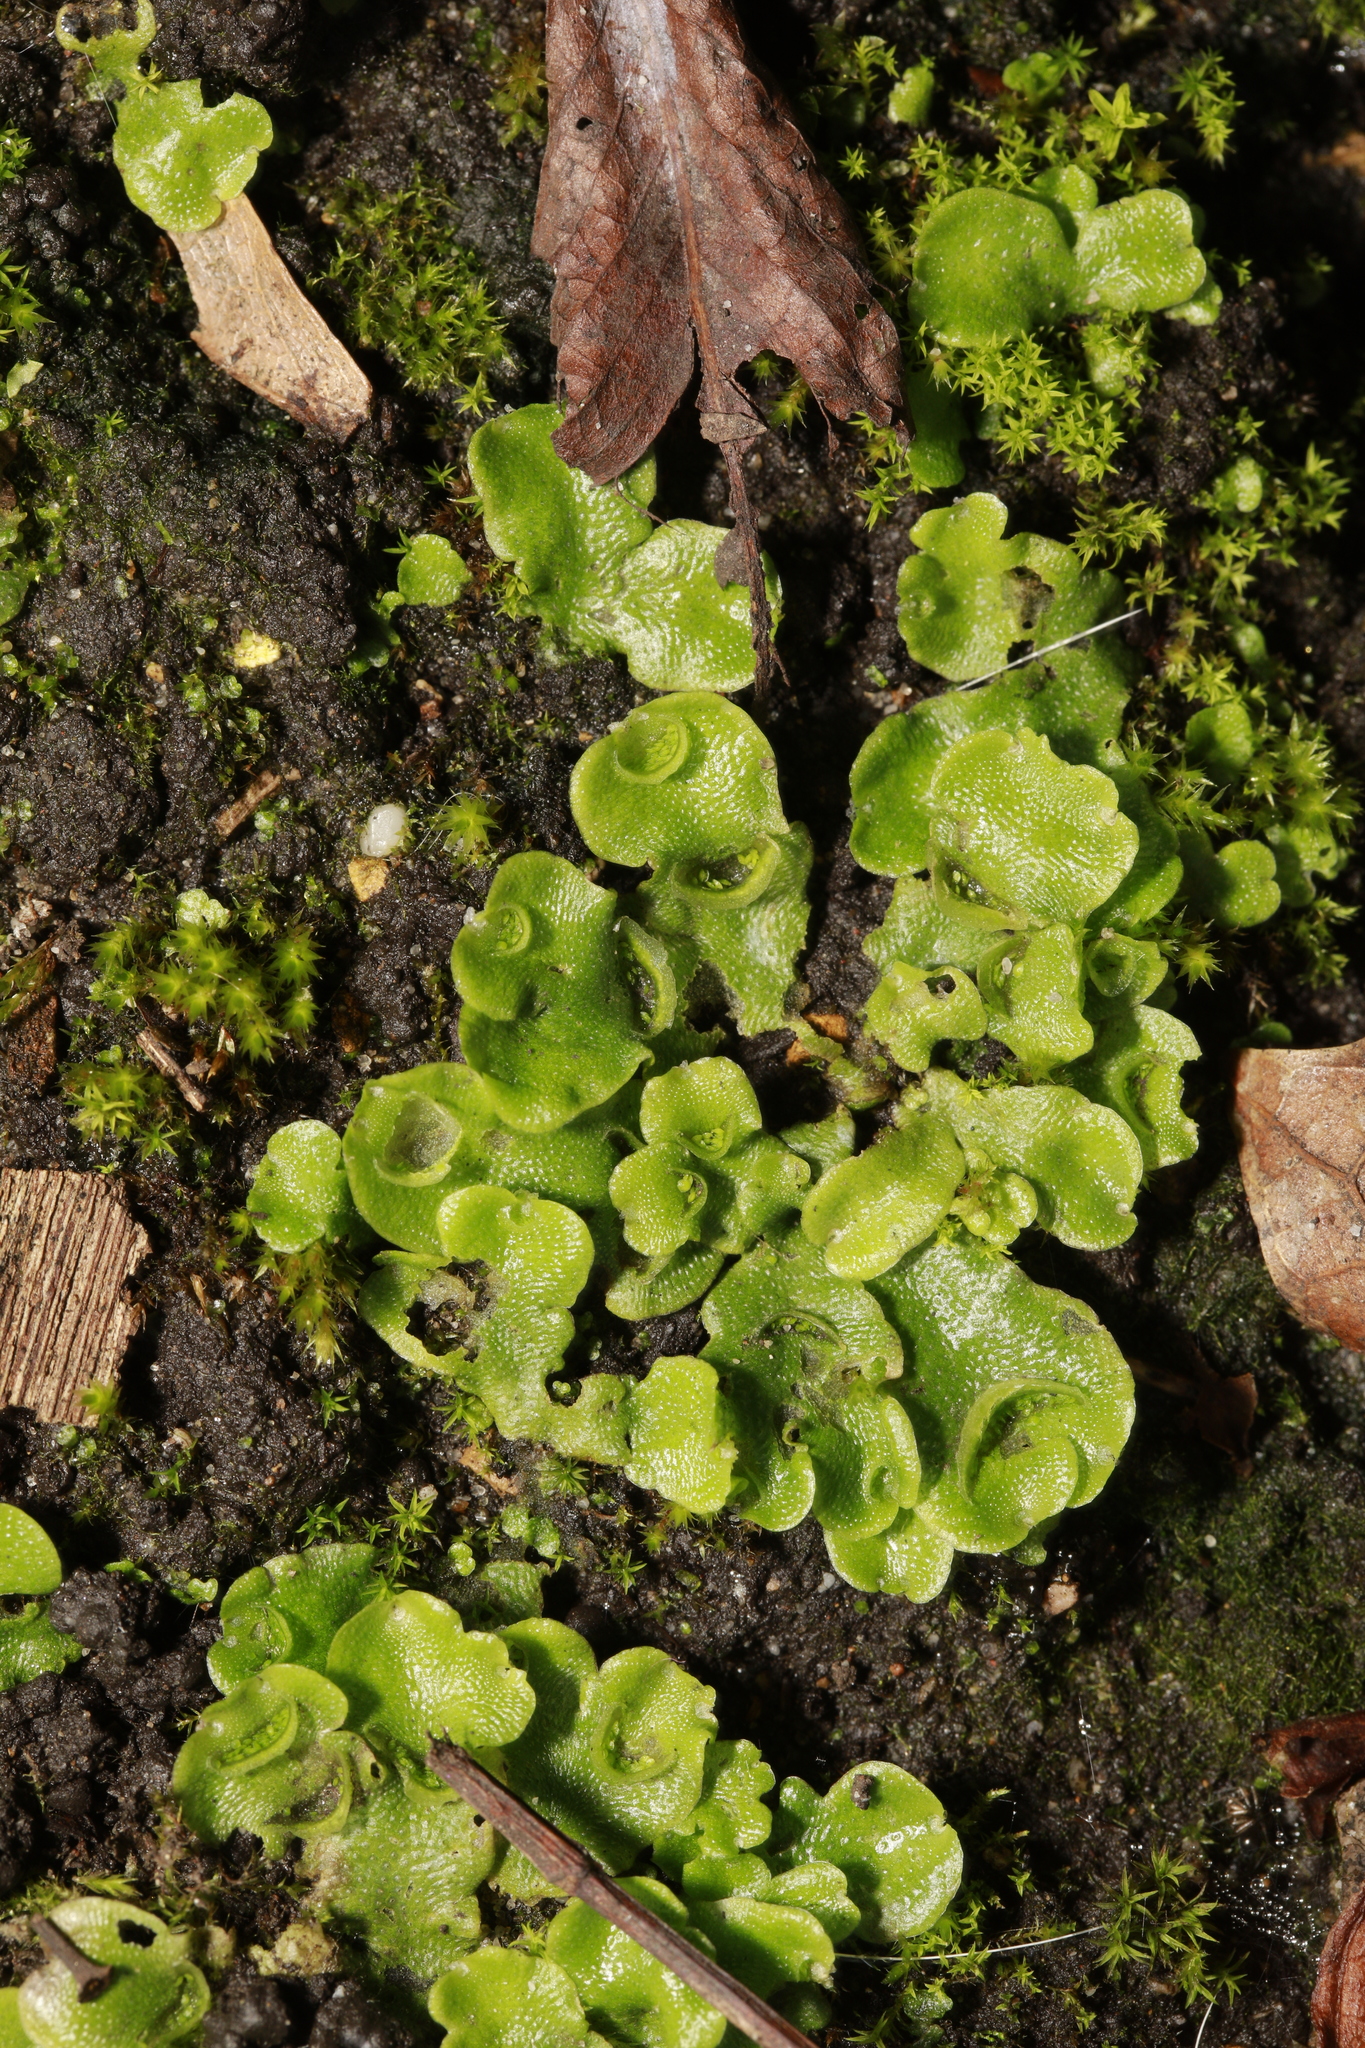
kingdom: Plantae
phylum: Marchantiophyta
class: Marchantiopsida
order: Lunulariales
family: Lunulariaceae
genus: Lunularia
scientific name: Lunularia cruciata
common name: Crescent-cup liverwort
